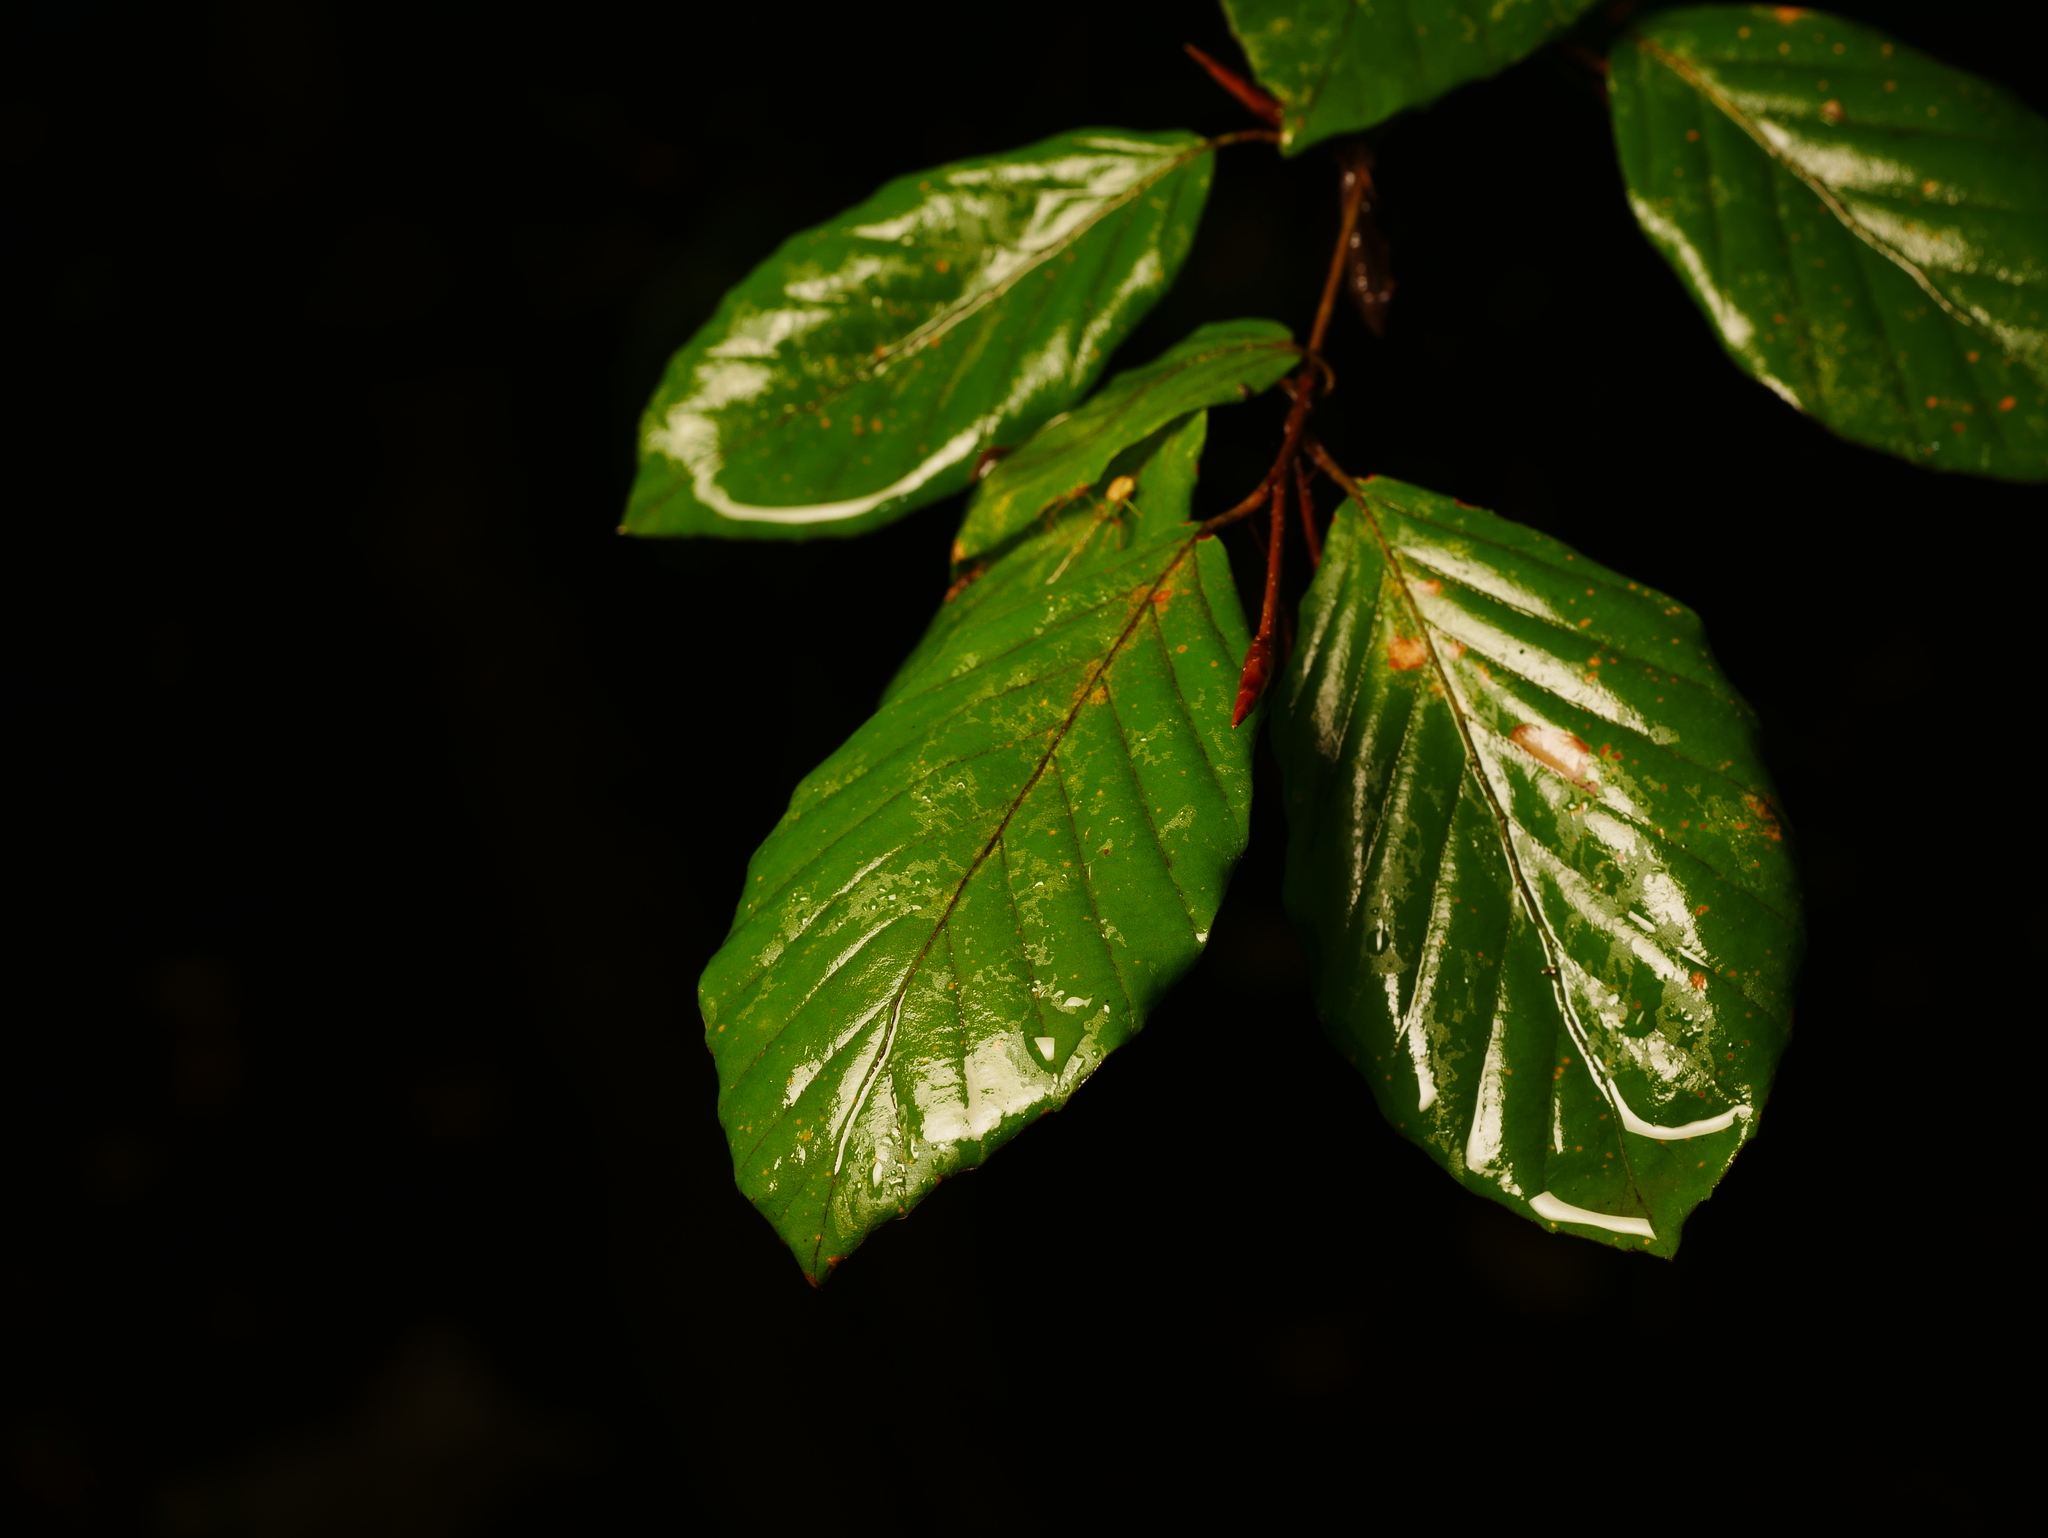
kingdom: Plantae
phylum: Tracheophyta
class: Magnoliopsida
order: Fagales
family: Fagaceae
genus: Fagus
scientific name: Fagus sylvatica
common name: Beech
